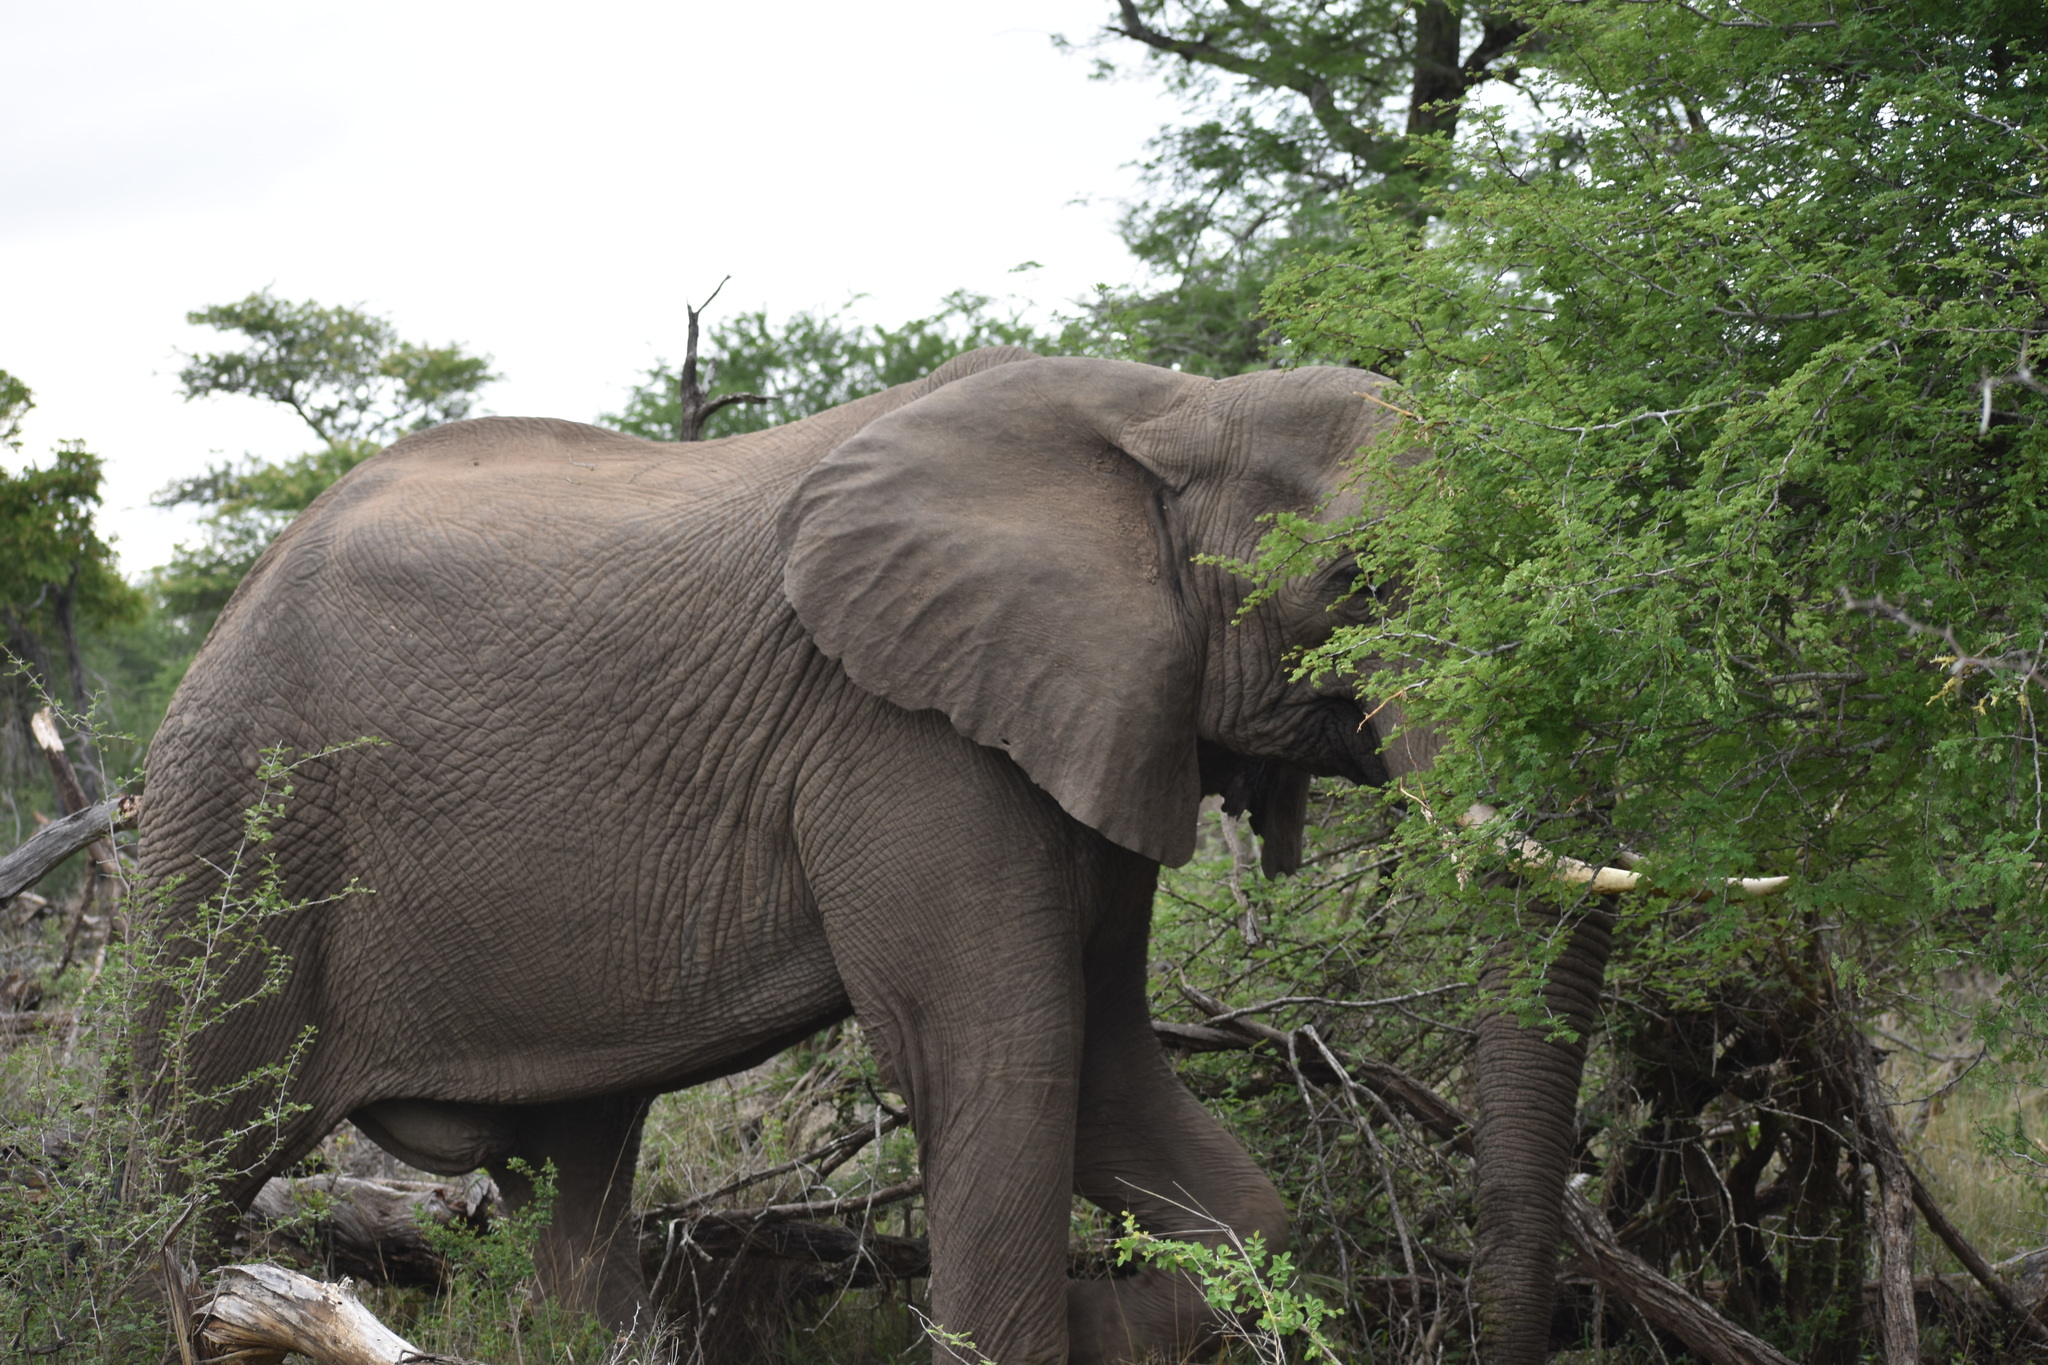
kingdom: Animalia
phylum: Chordata
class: Mammalia
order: Proboscidea
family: Elephantidae
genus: Loxodonta
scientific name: Loxodonta africana
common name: African elephant
